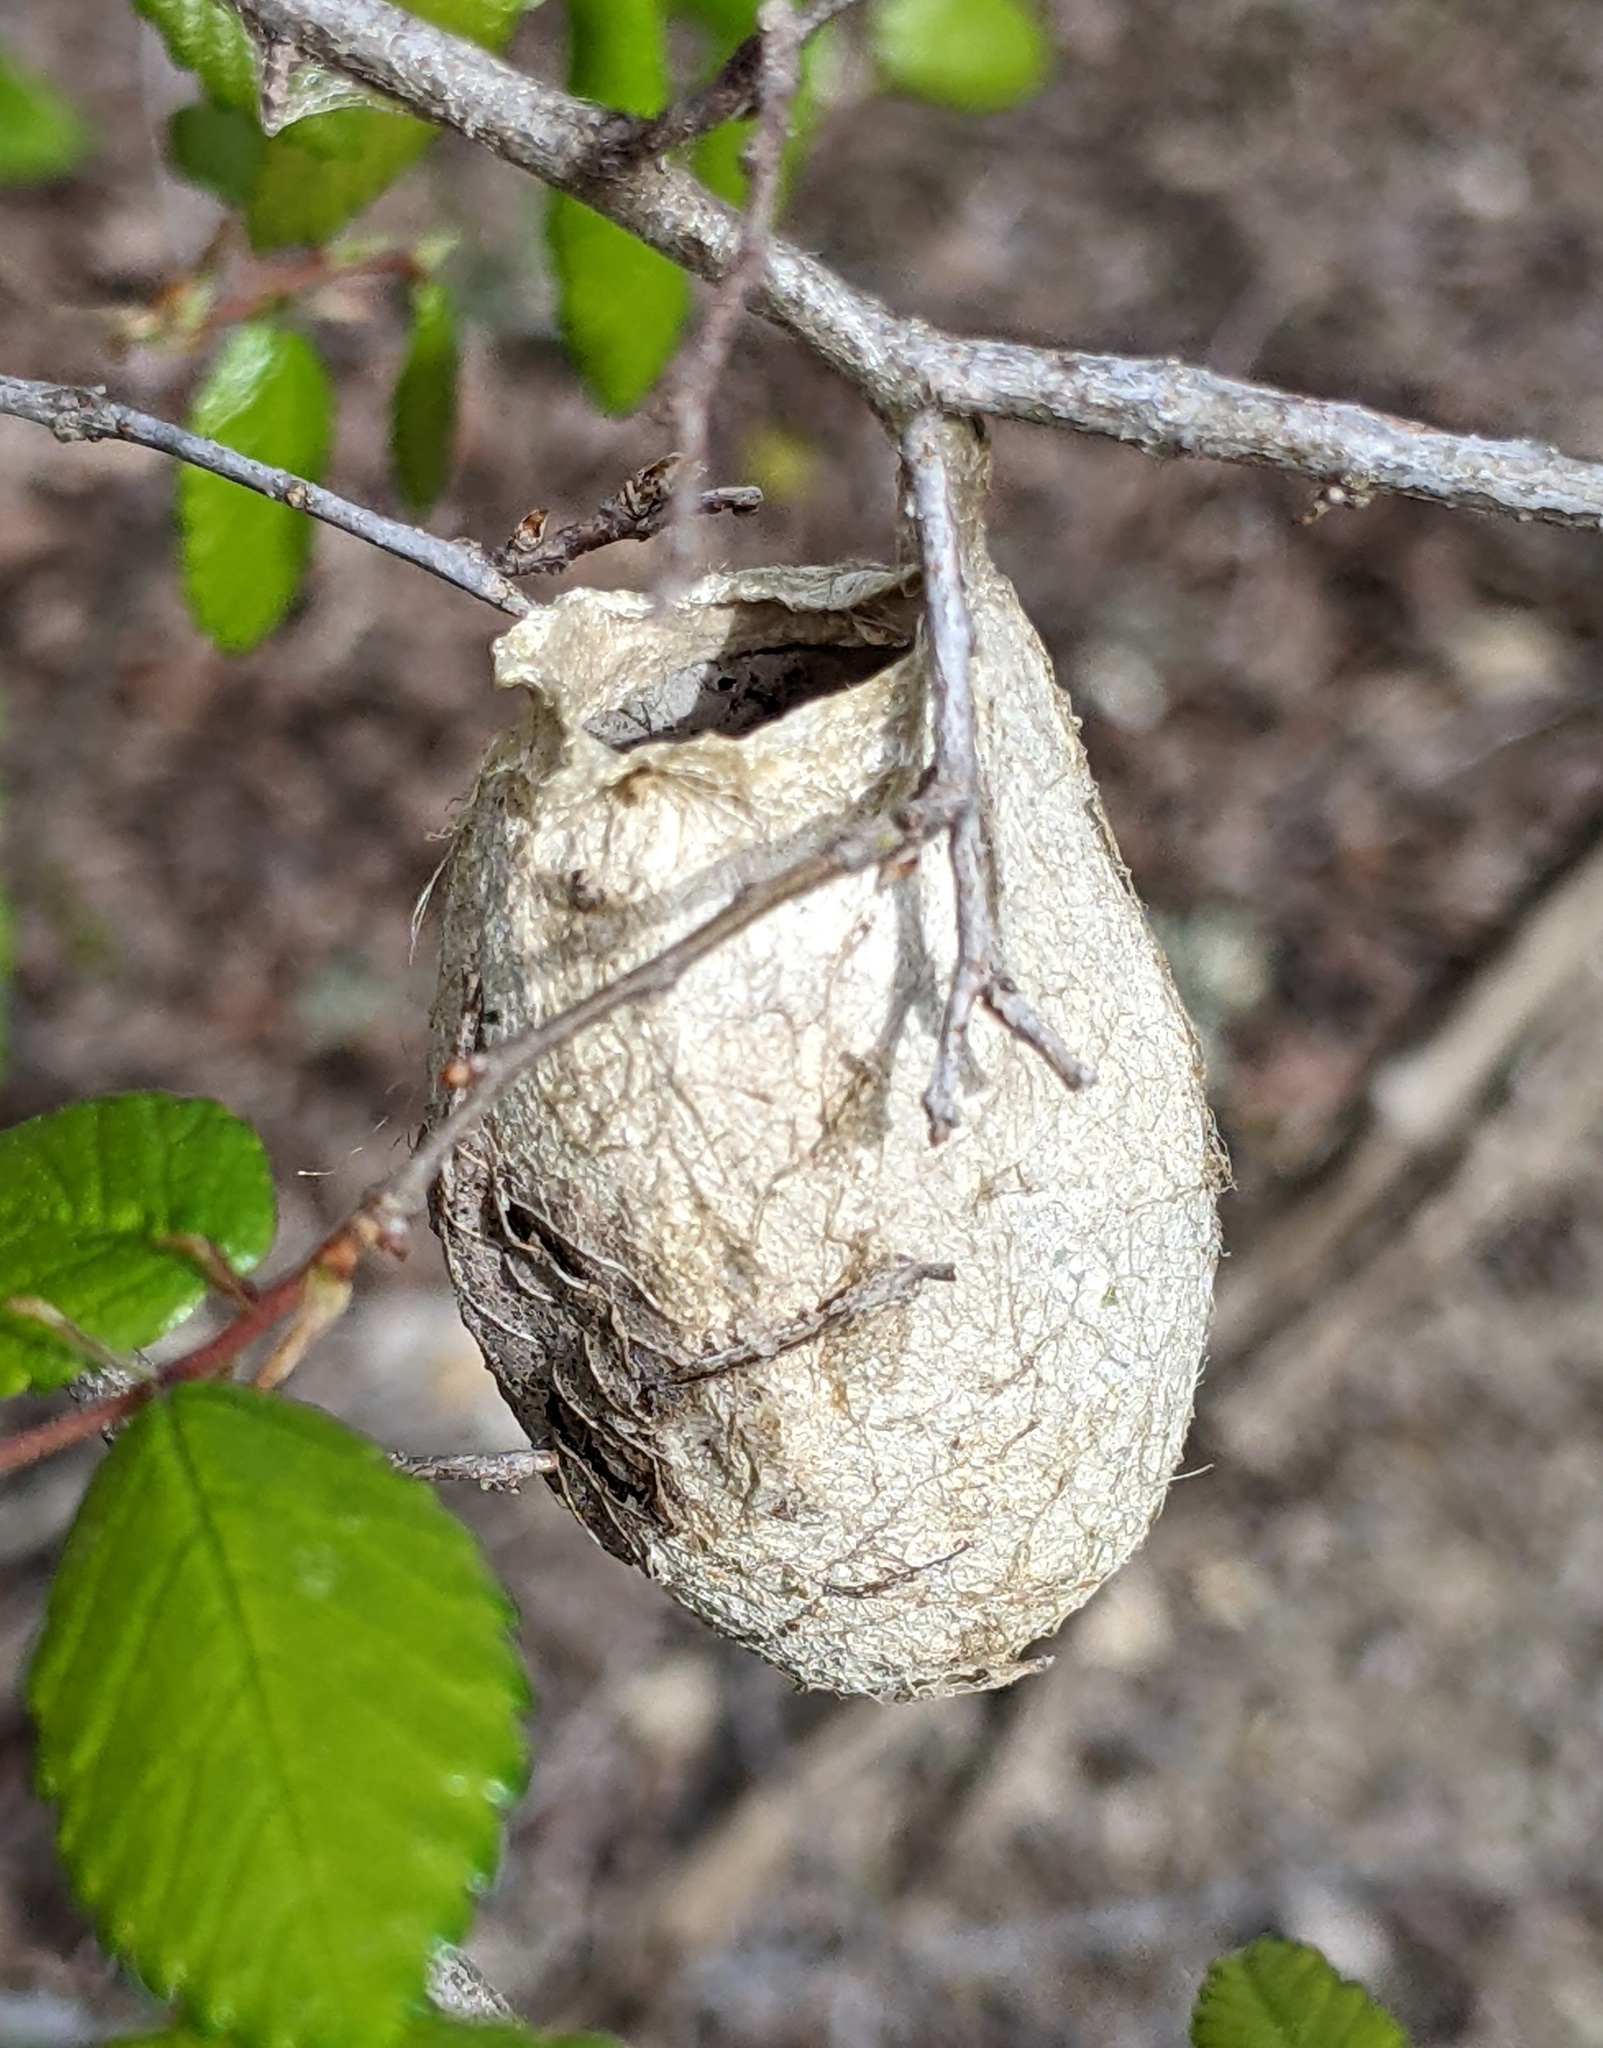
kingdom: Animalia
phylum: Arthropoda
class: Insecta
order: Lepidoptera
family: Saturniidae
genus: Antheraea
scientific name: Antheraea polyphemus
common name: Polyphemus moth
